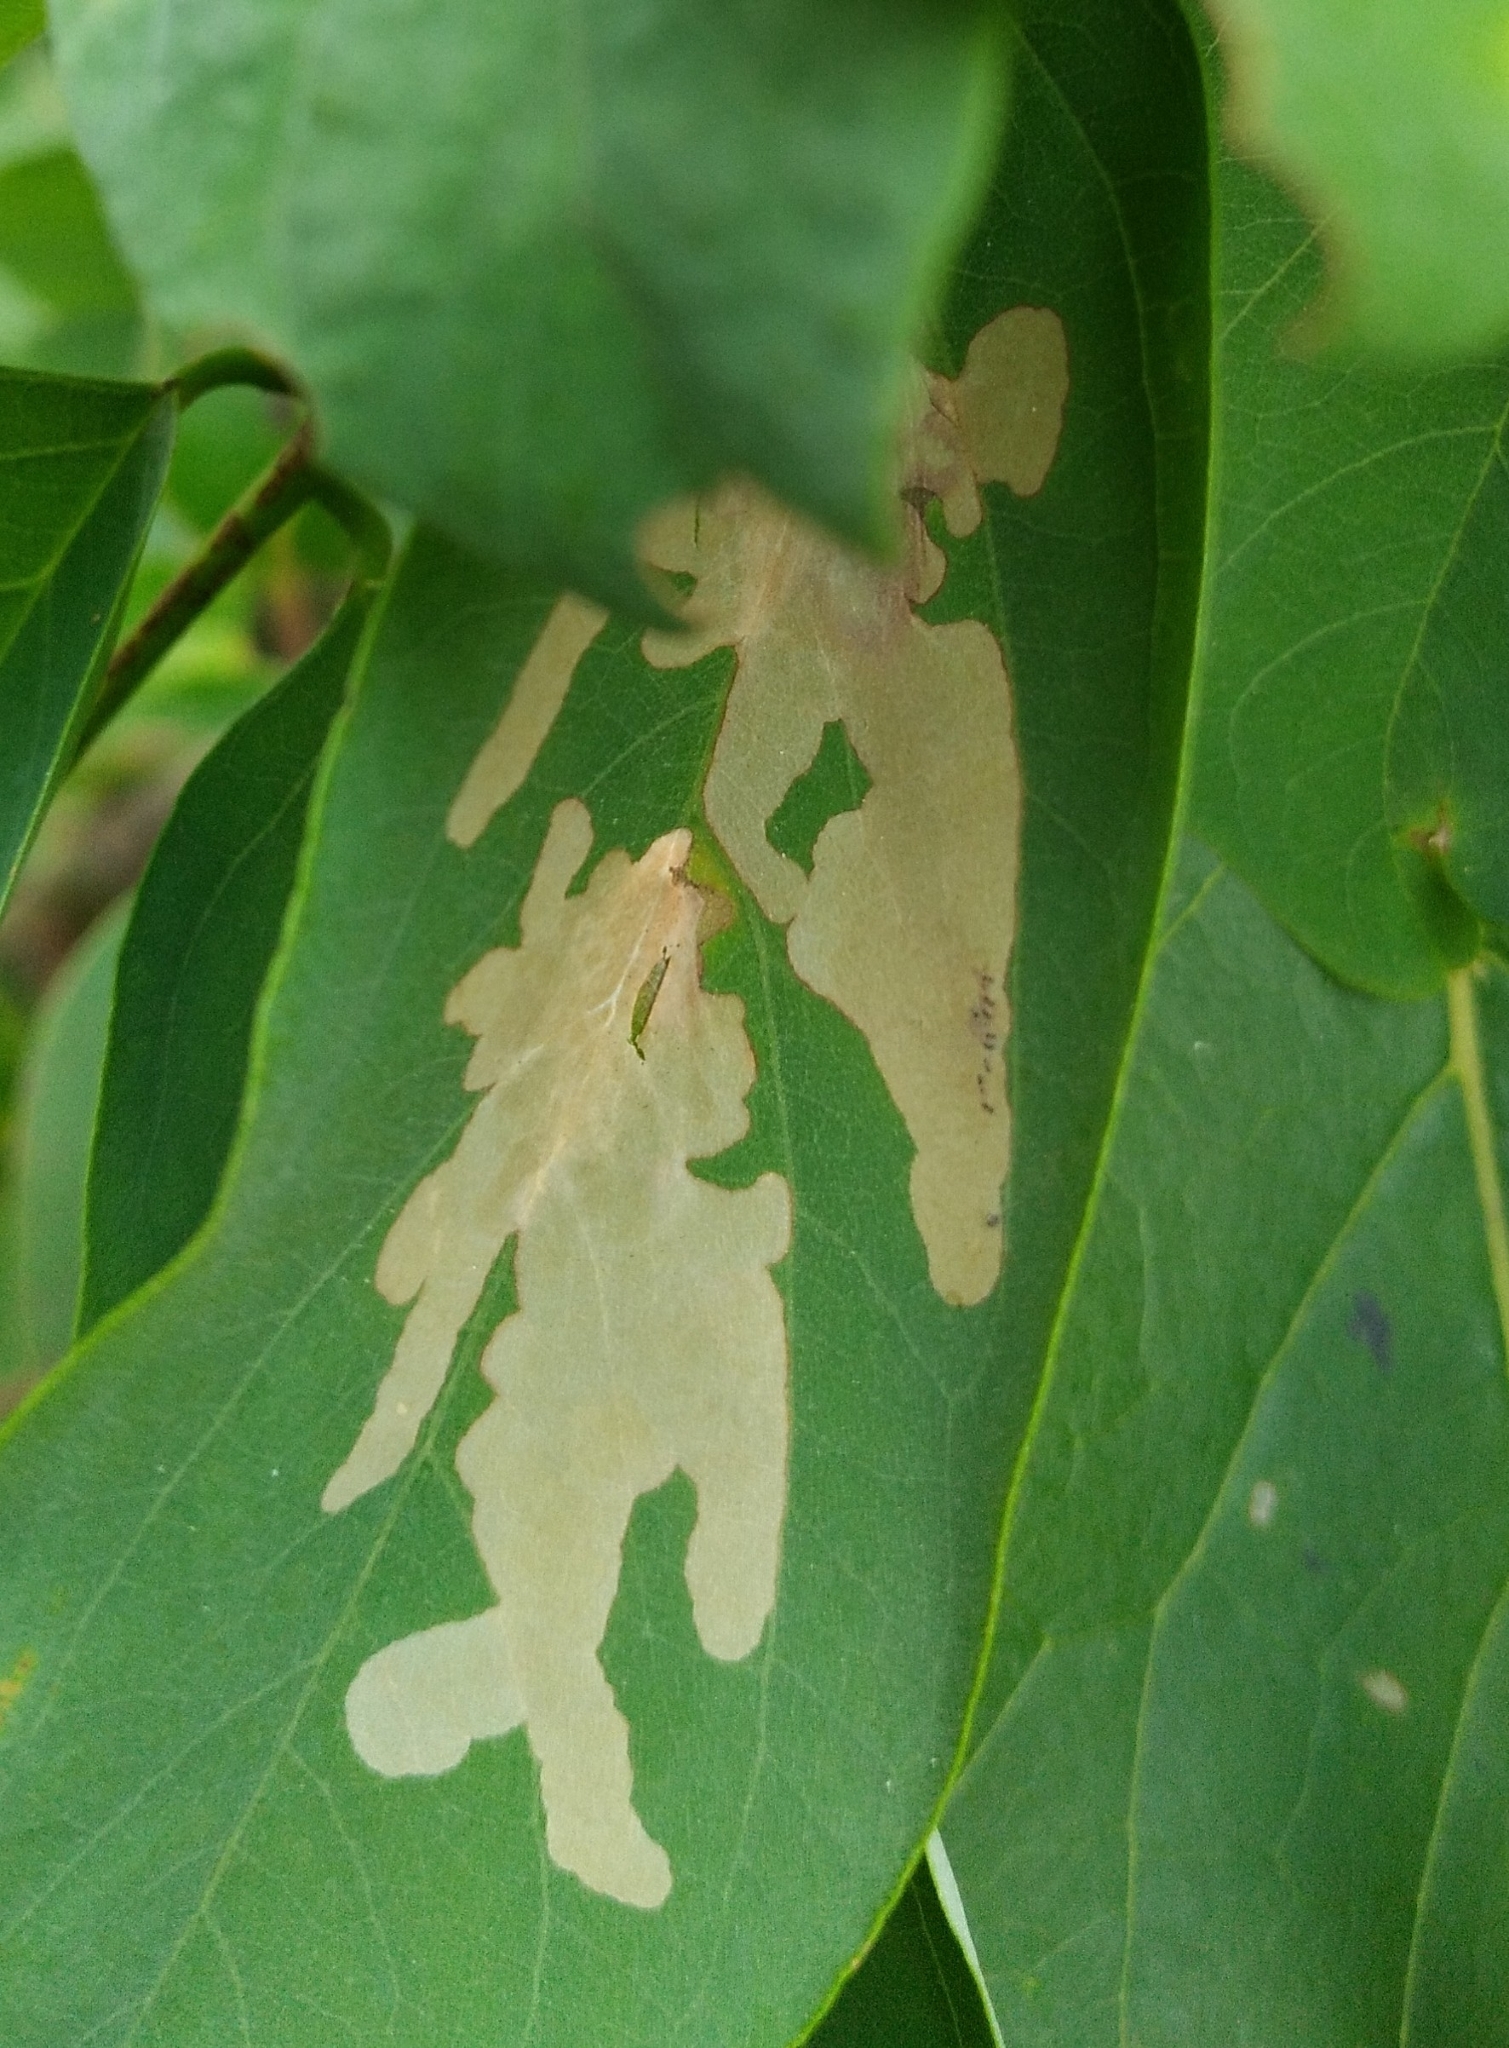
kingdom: Animalia
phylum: Arthropoda
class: Insecta
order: Lepidoptera
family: Gracillariidae
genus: Parectopa
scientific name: Parectopa robiniella
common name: Locust digitate leafminer
